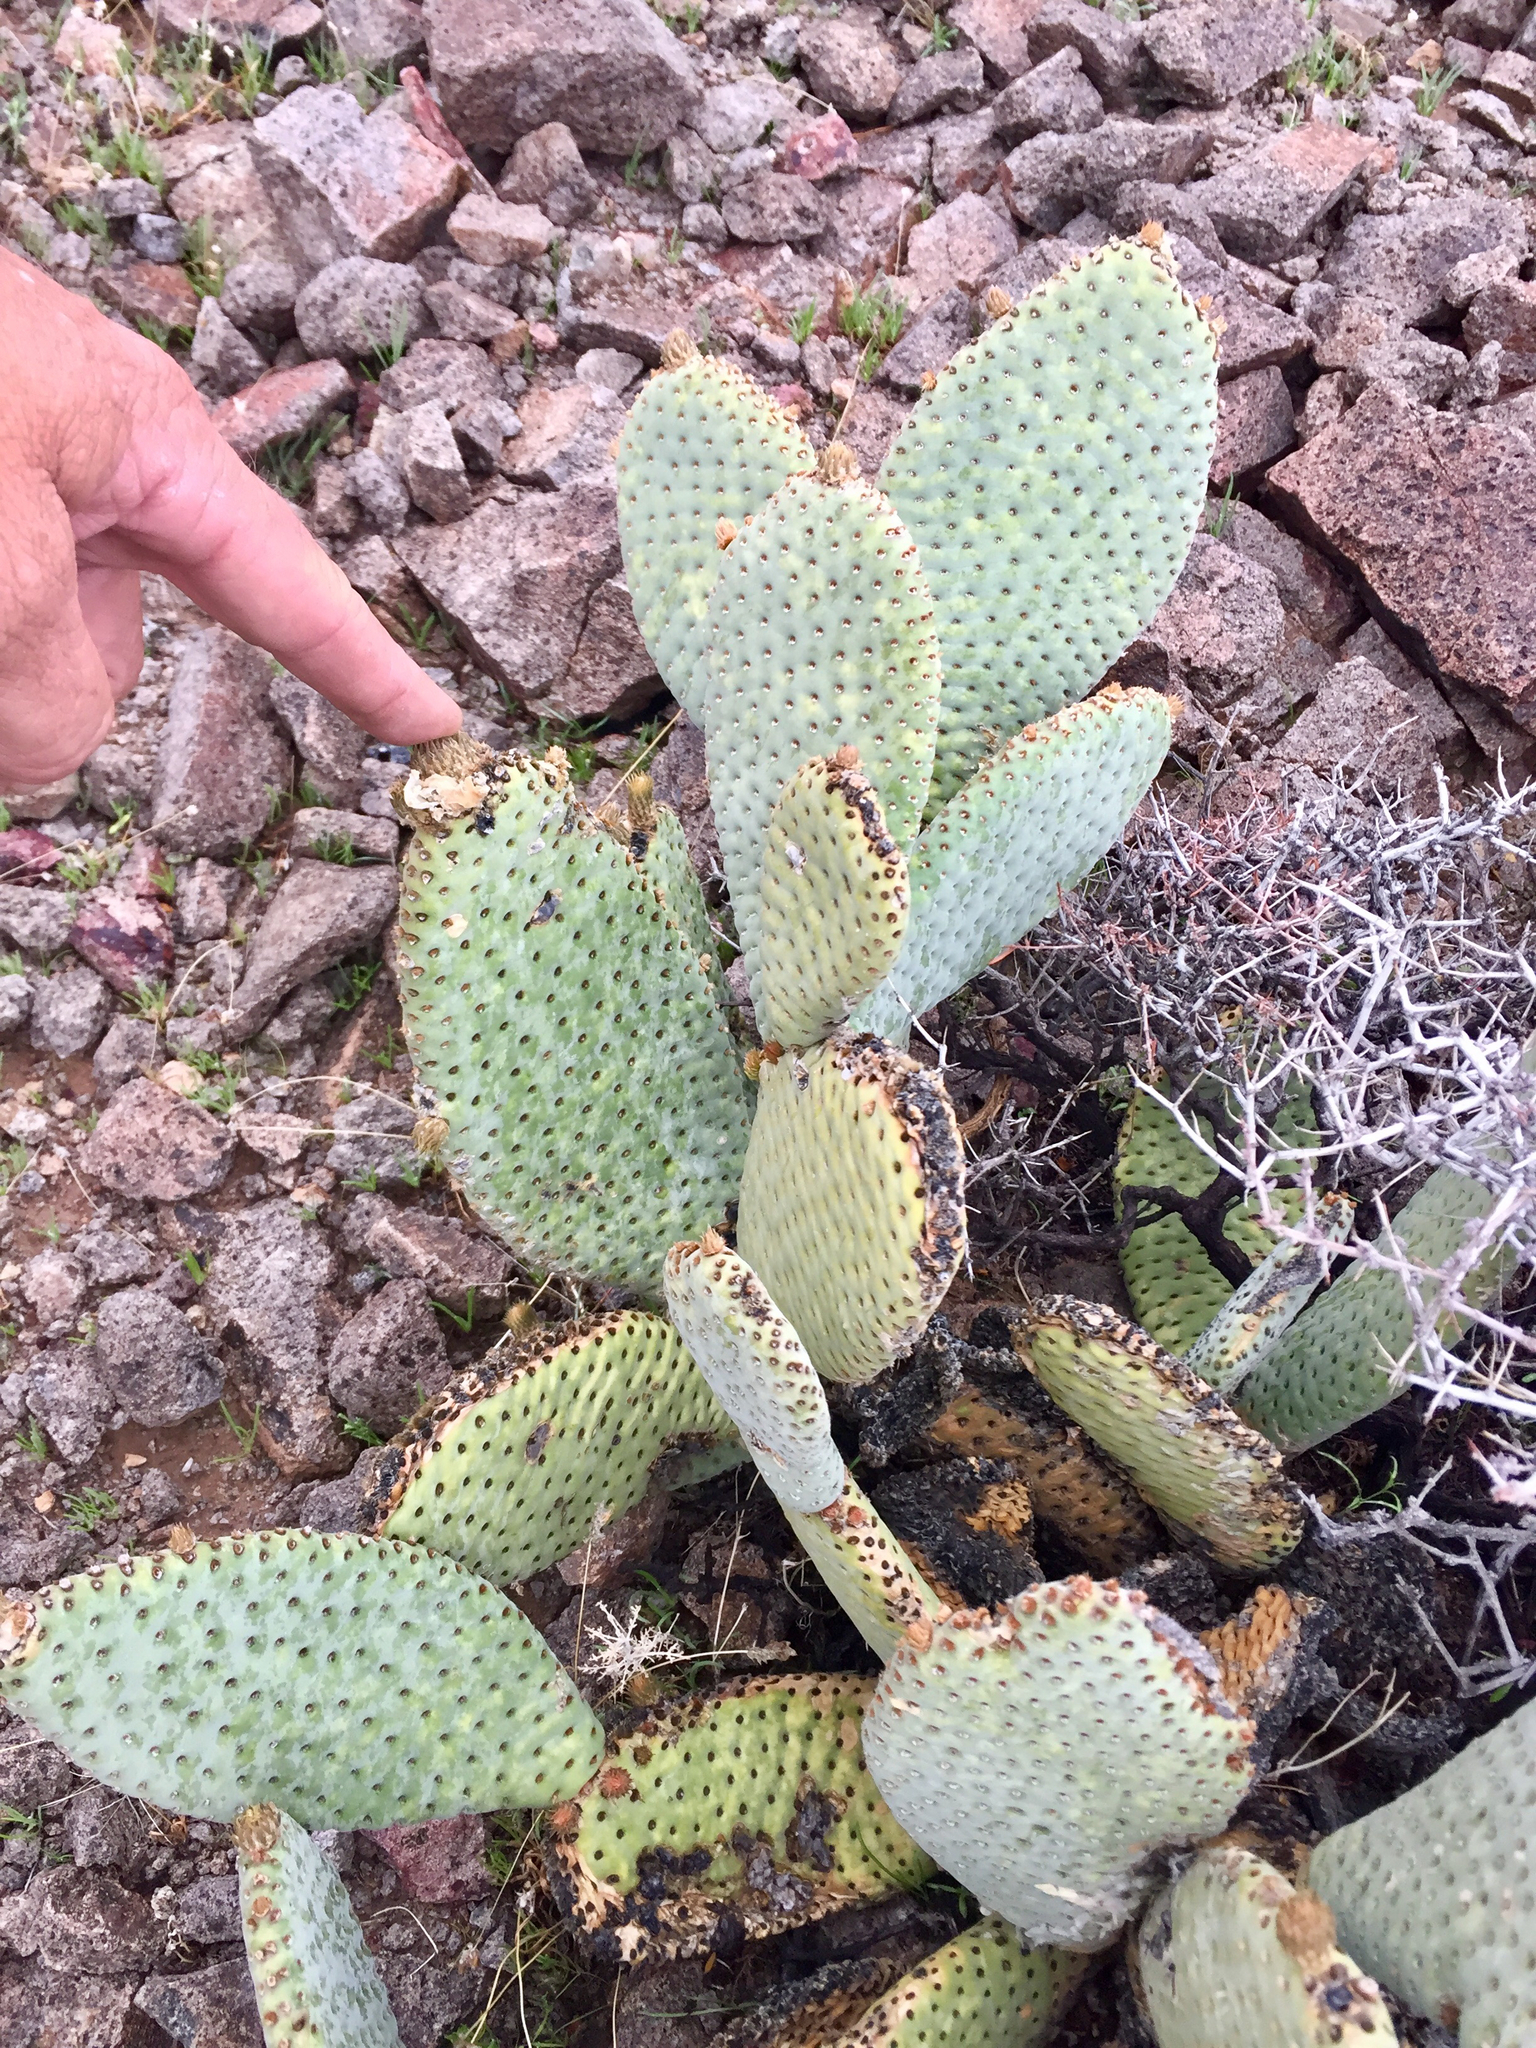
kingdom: Plantae
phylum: Tracheophyta
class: Magnoliopsida
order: Caryophyllales
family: Cactaceae
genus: Opuntia
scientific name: Opuntia basilaris
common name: Beavertail prickly-pear
